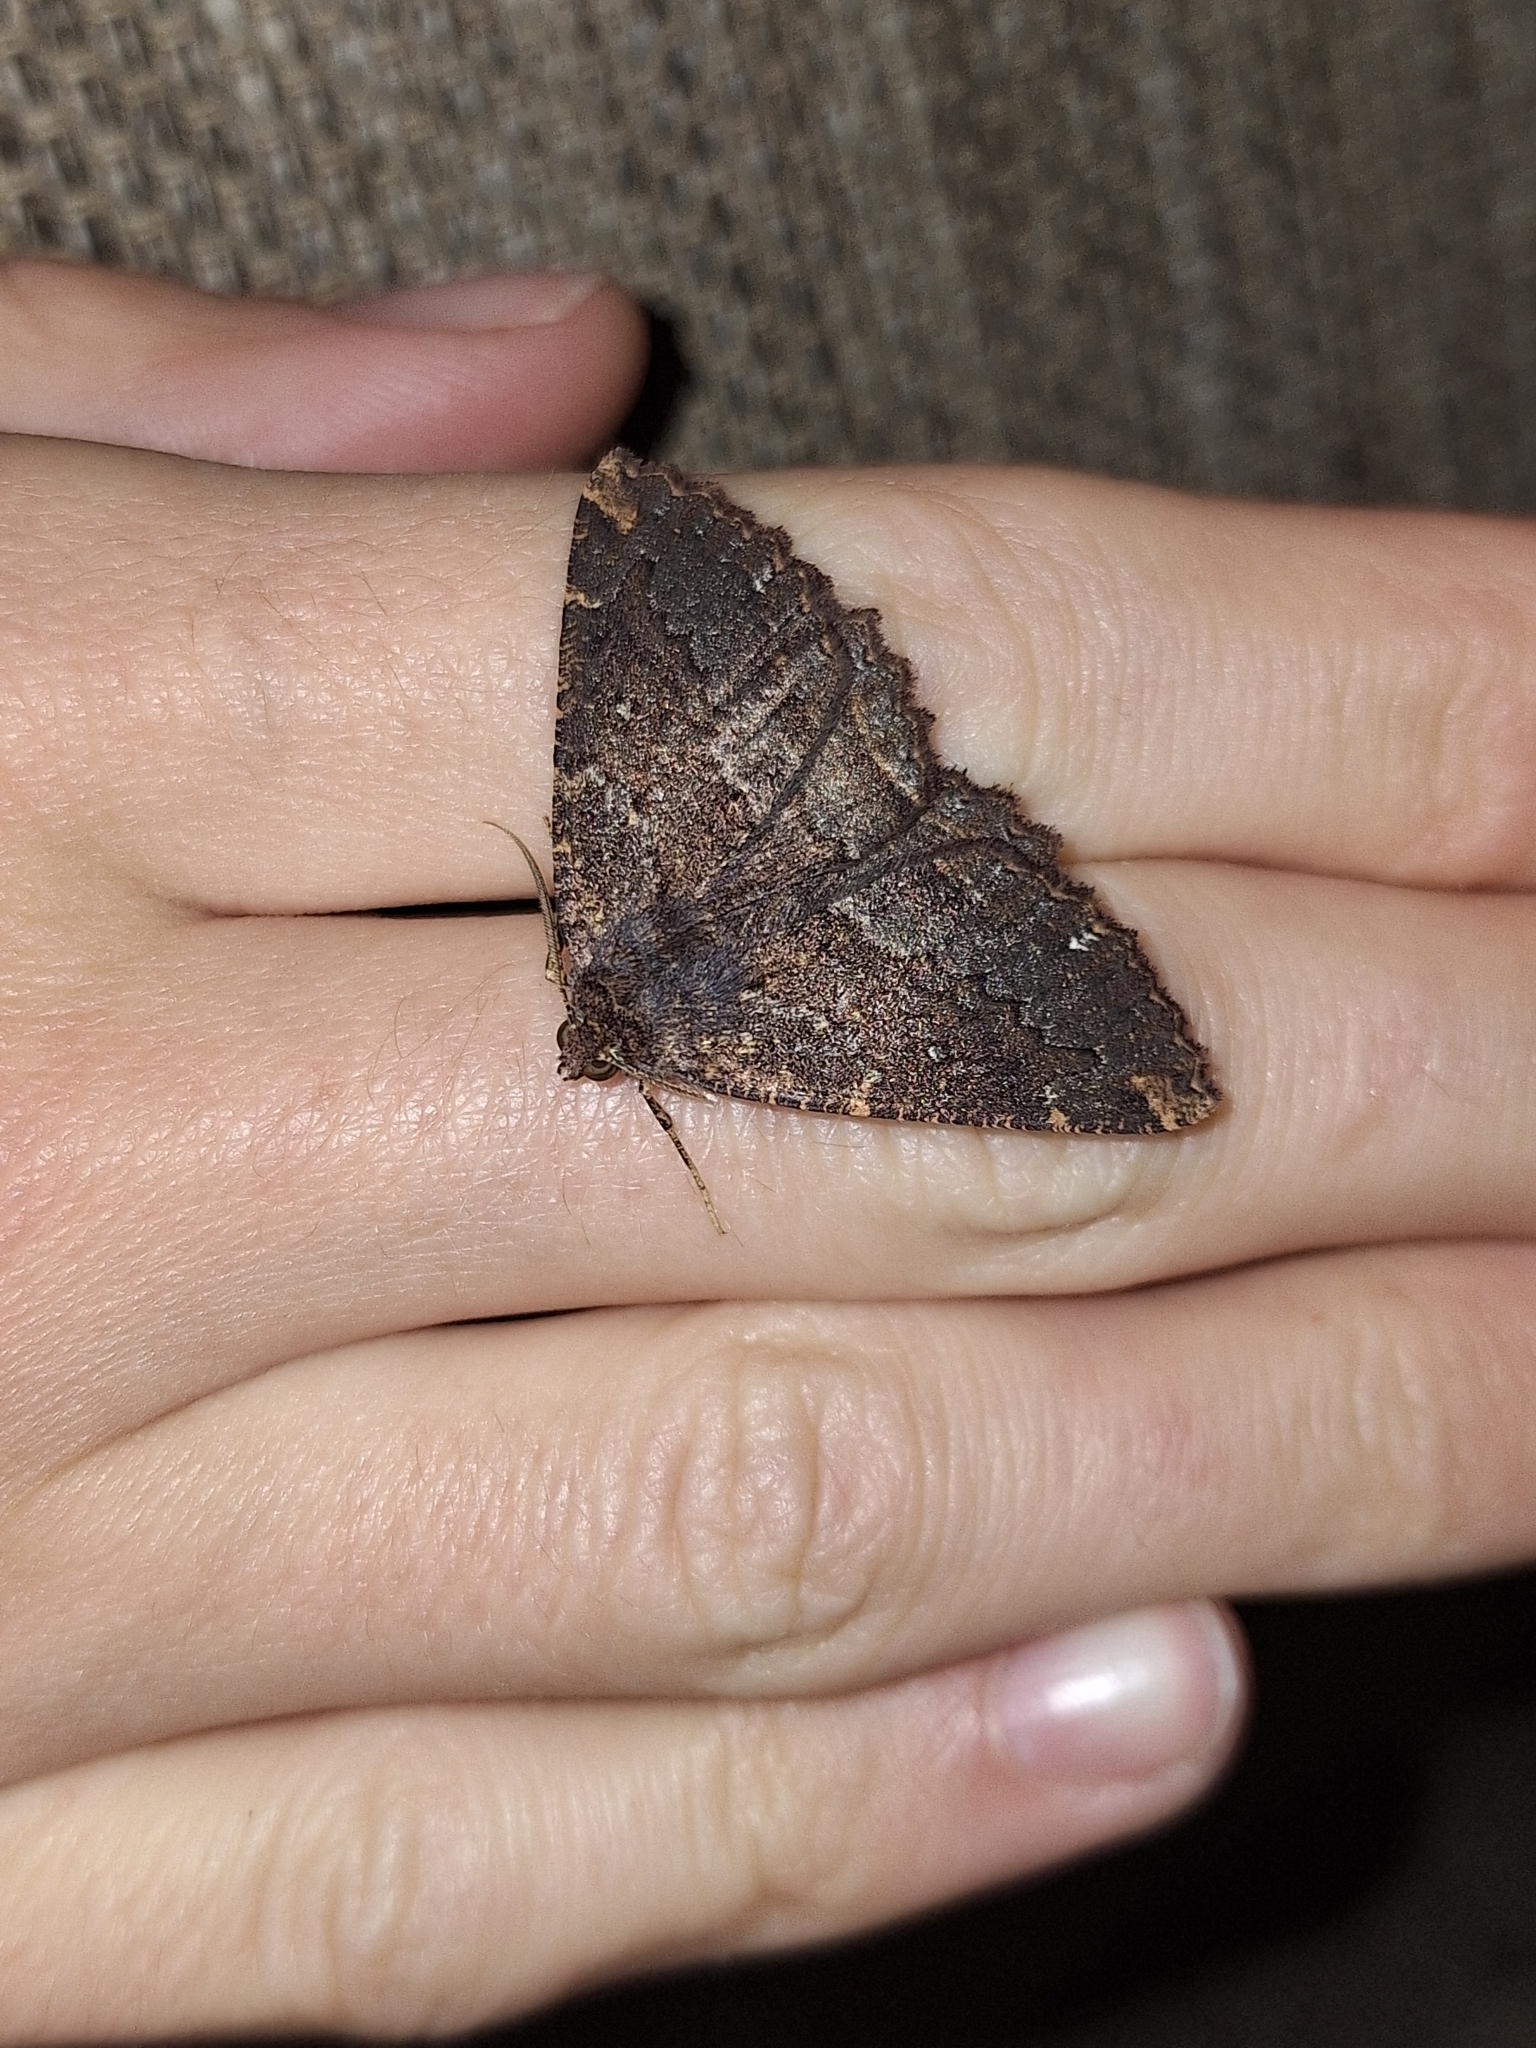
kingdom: Animalia
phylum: Arthropoda
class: Insecta
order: Lepidoptera
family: Geometridae
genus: Gellonia
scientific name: Gellonia dejectaria
